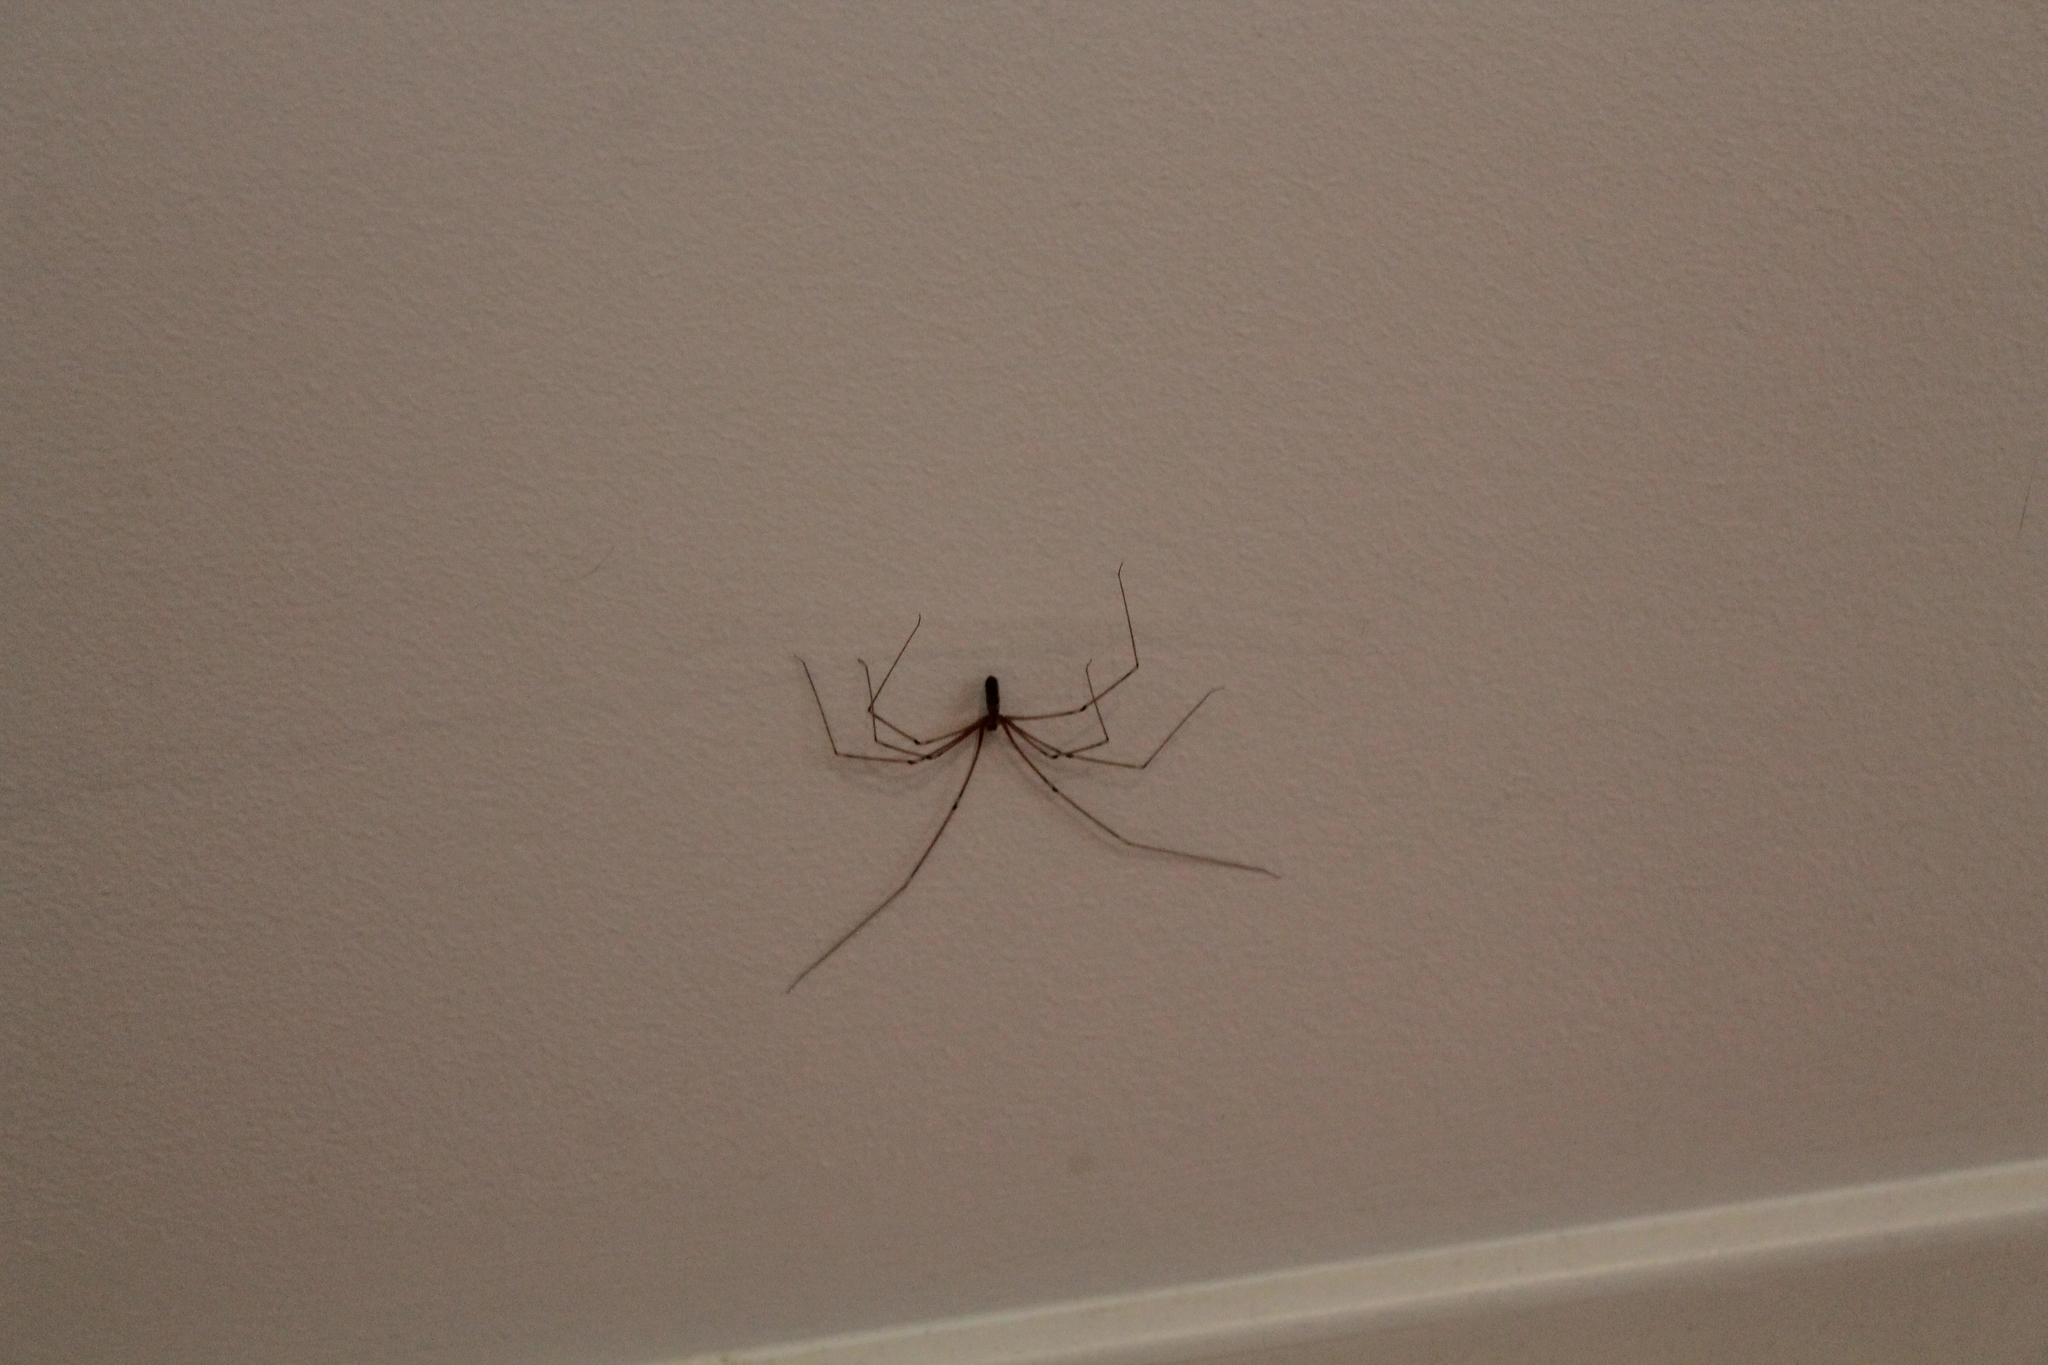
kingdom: Animalia
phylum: Arthropoda
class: Arachnida
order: Araneae
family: Pholcidae
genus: Pholcus
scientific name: Pholcus phalangioides
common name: Longbodied cellar spider
